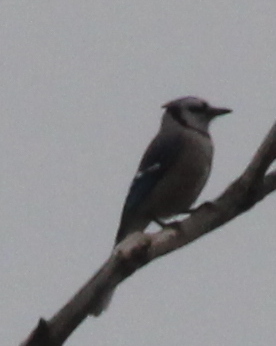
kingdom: Animalia
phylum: Chordata
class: Aves
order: Passeriformes
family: Corvidae
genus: Cyanocitta
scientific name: Cyanocitta cristata
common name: Blue jay
